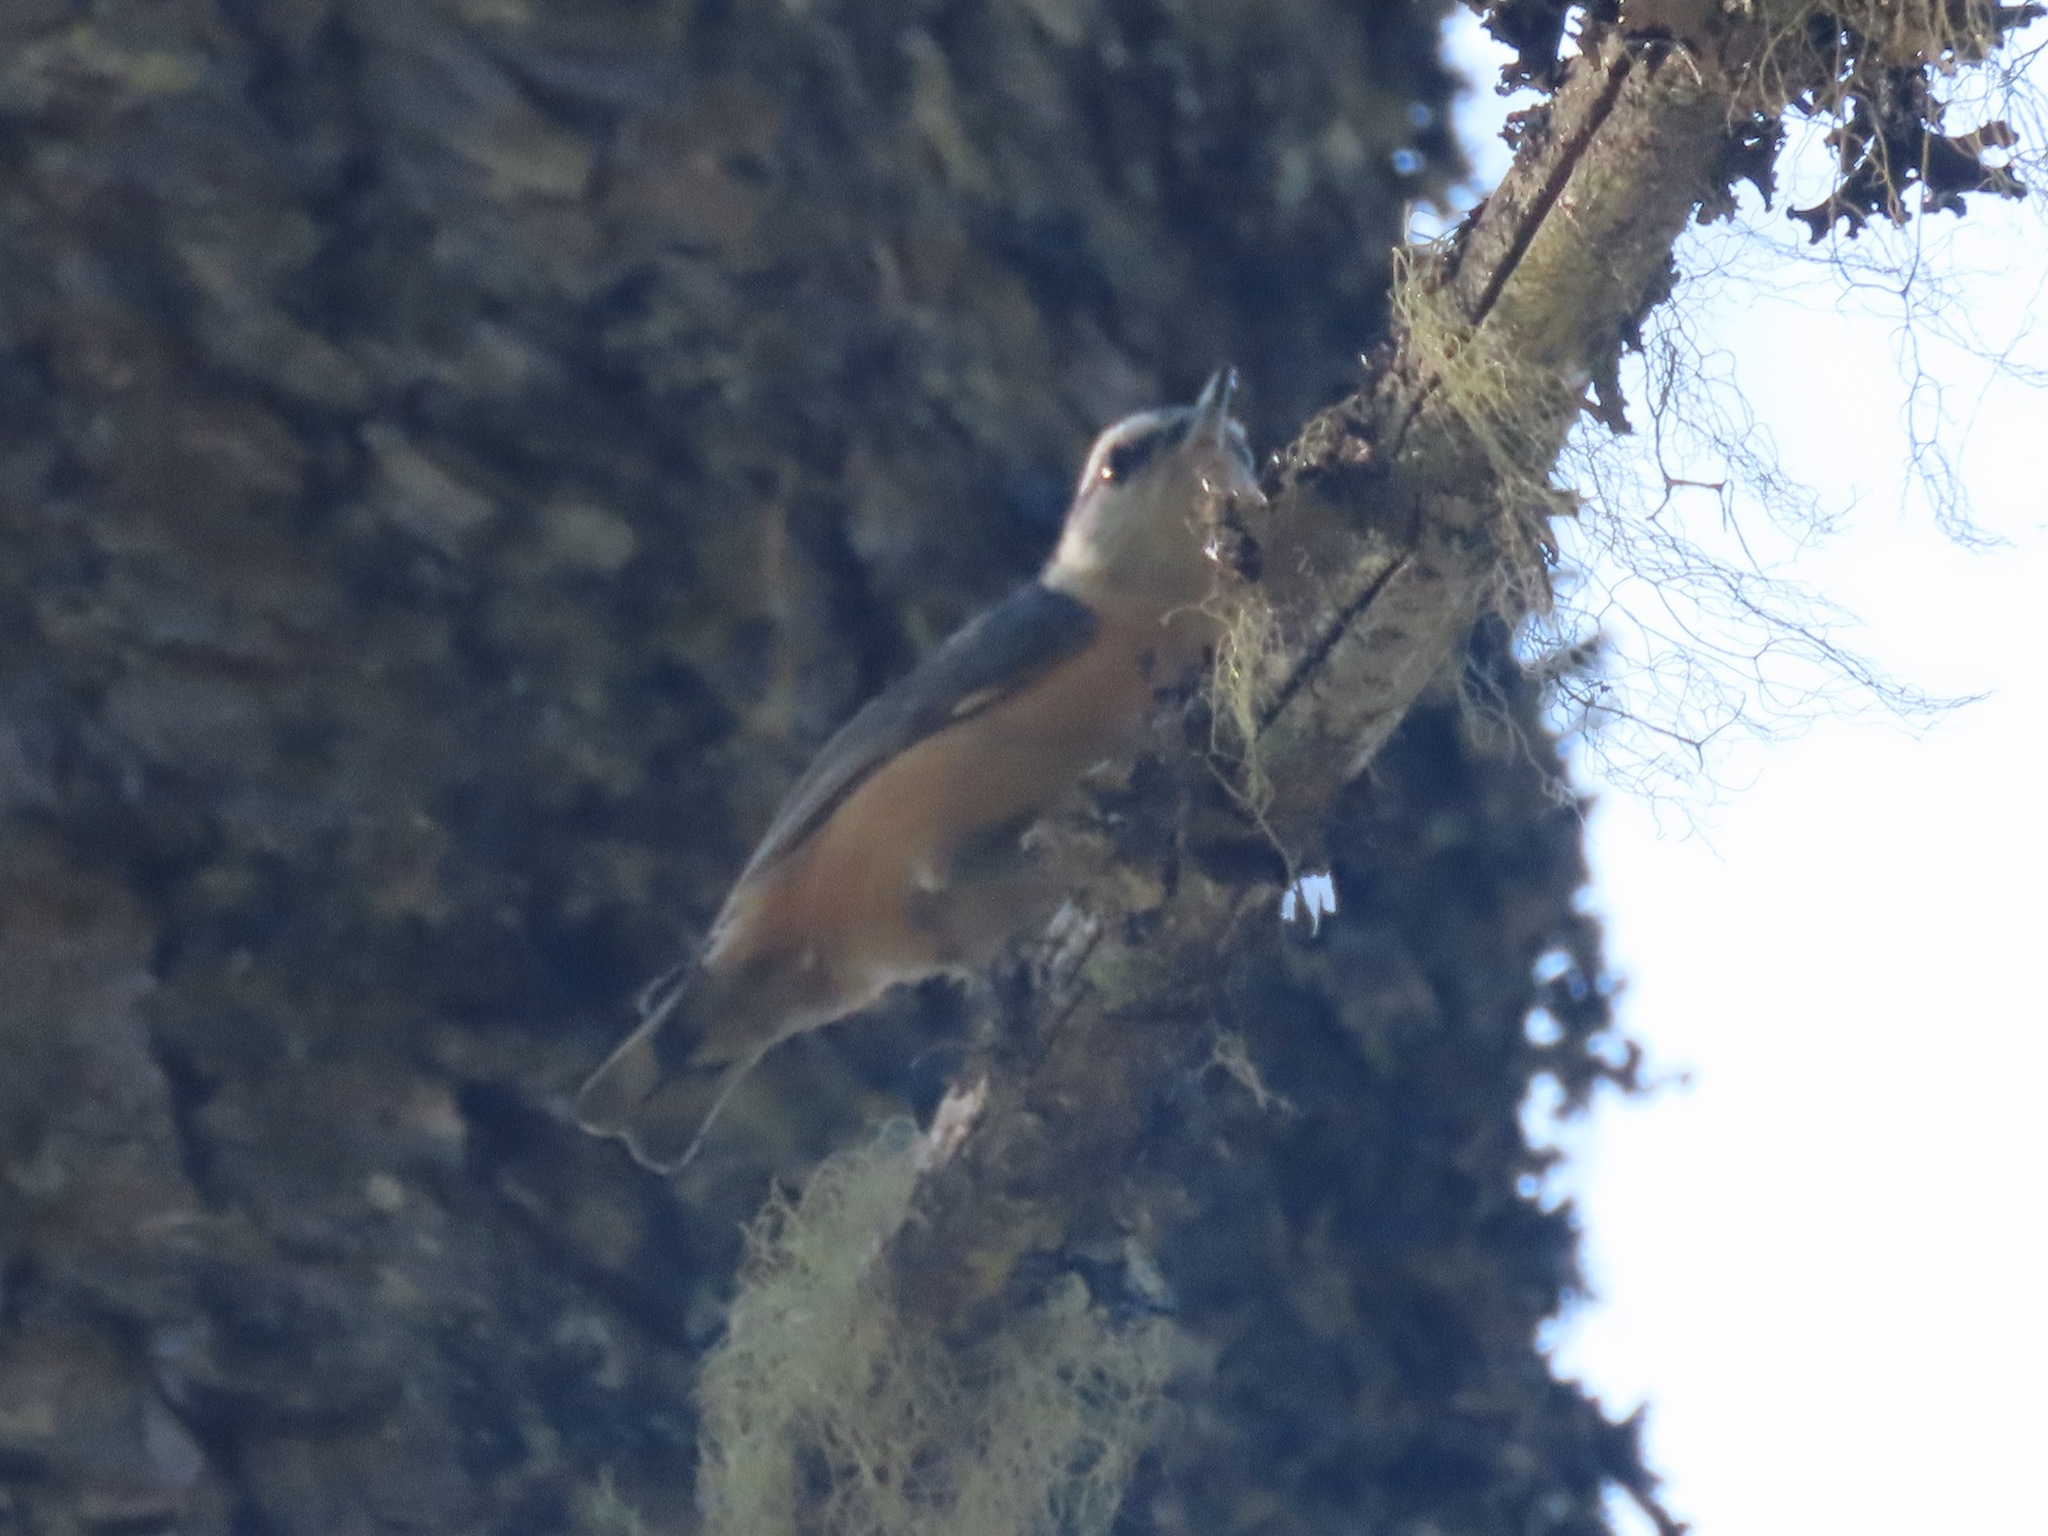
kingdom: Animalia
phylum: Chordata
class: Aves
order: Passeriformes
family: Sittidae
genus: Sitta
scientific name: Sitta canadensis
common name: Red-breasted nuthatch
